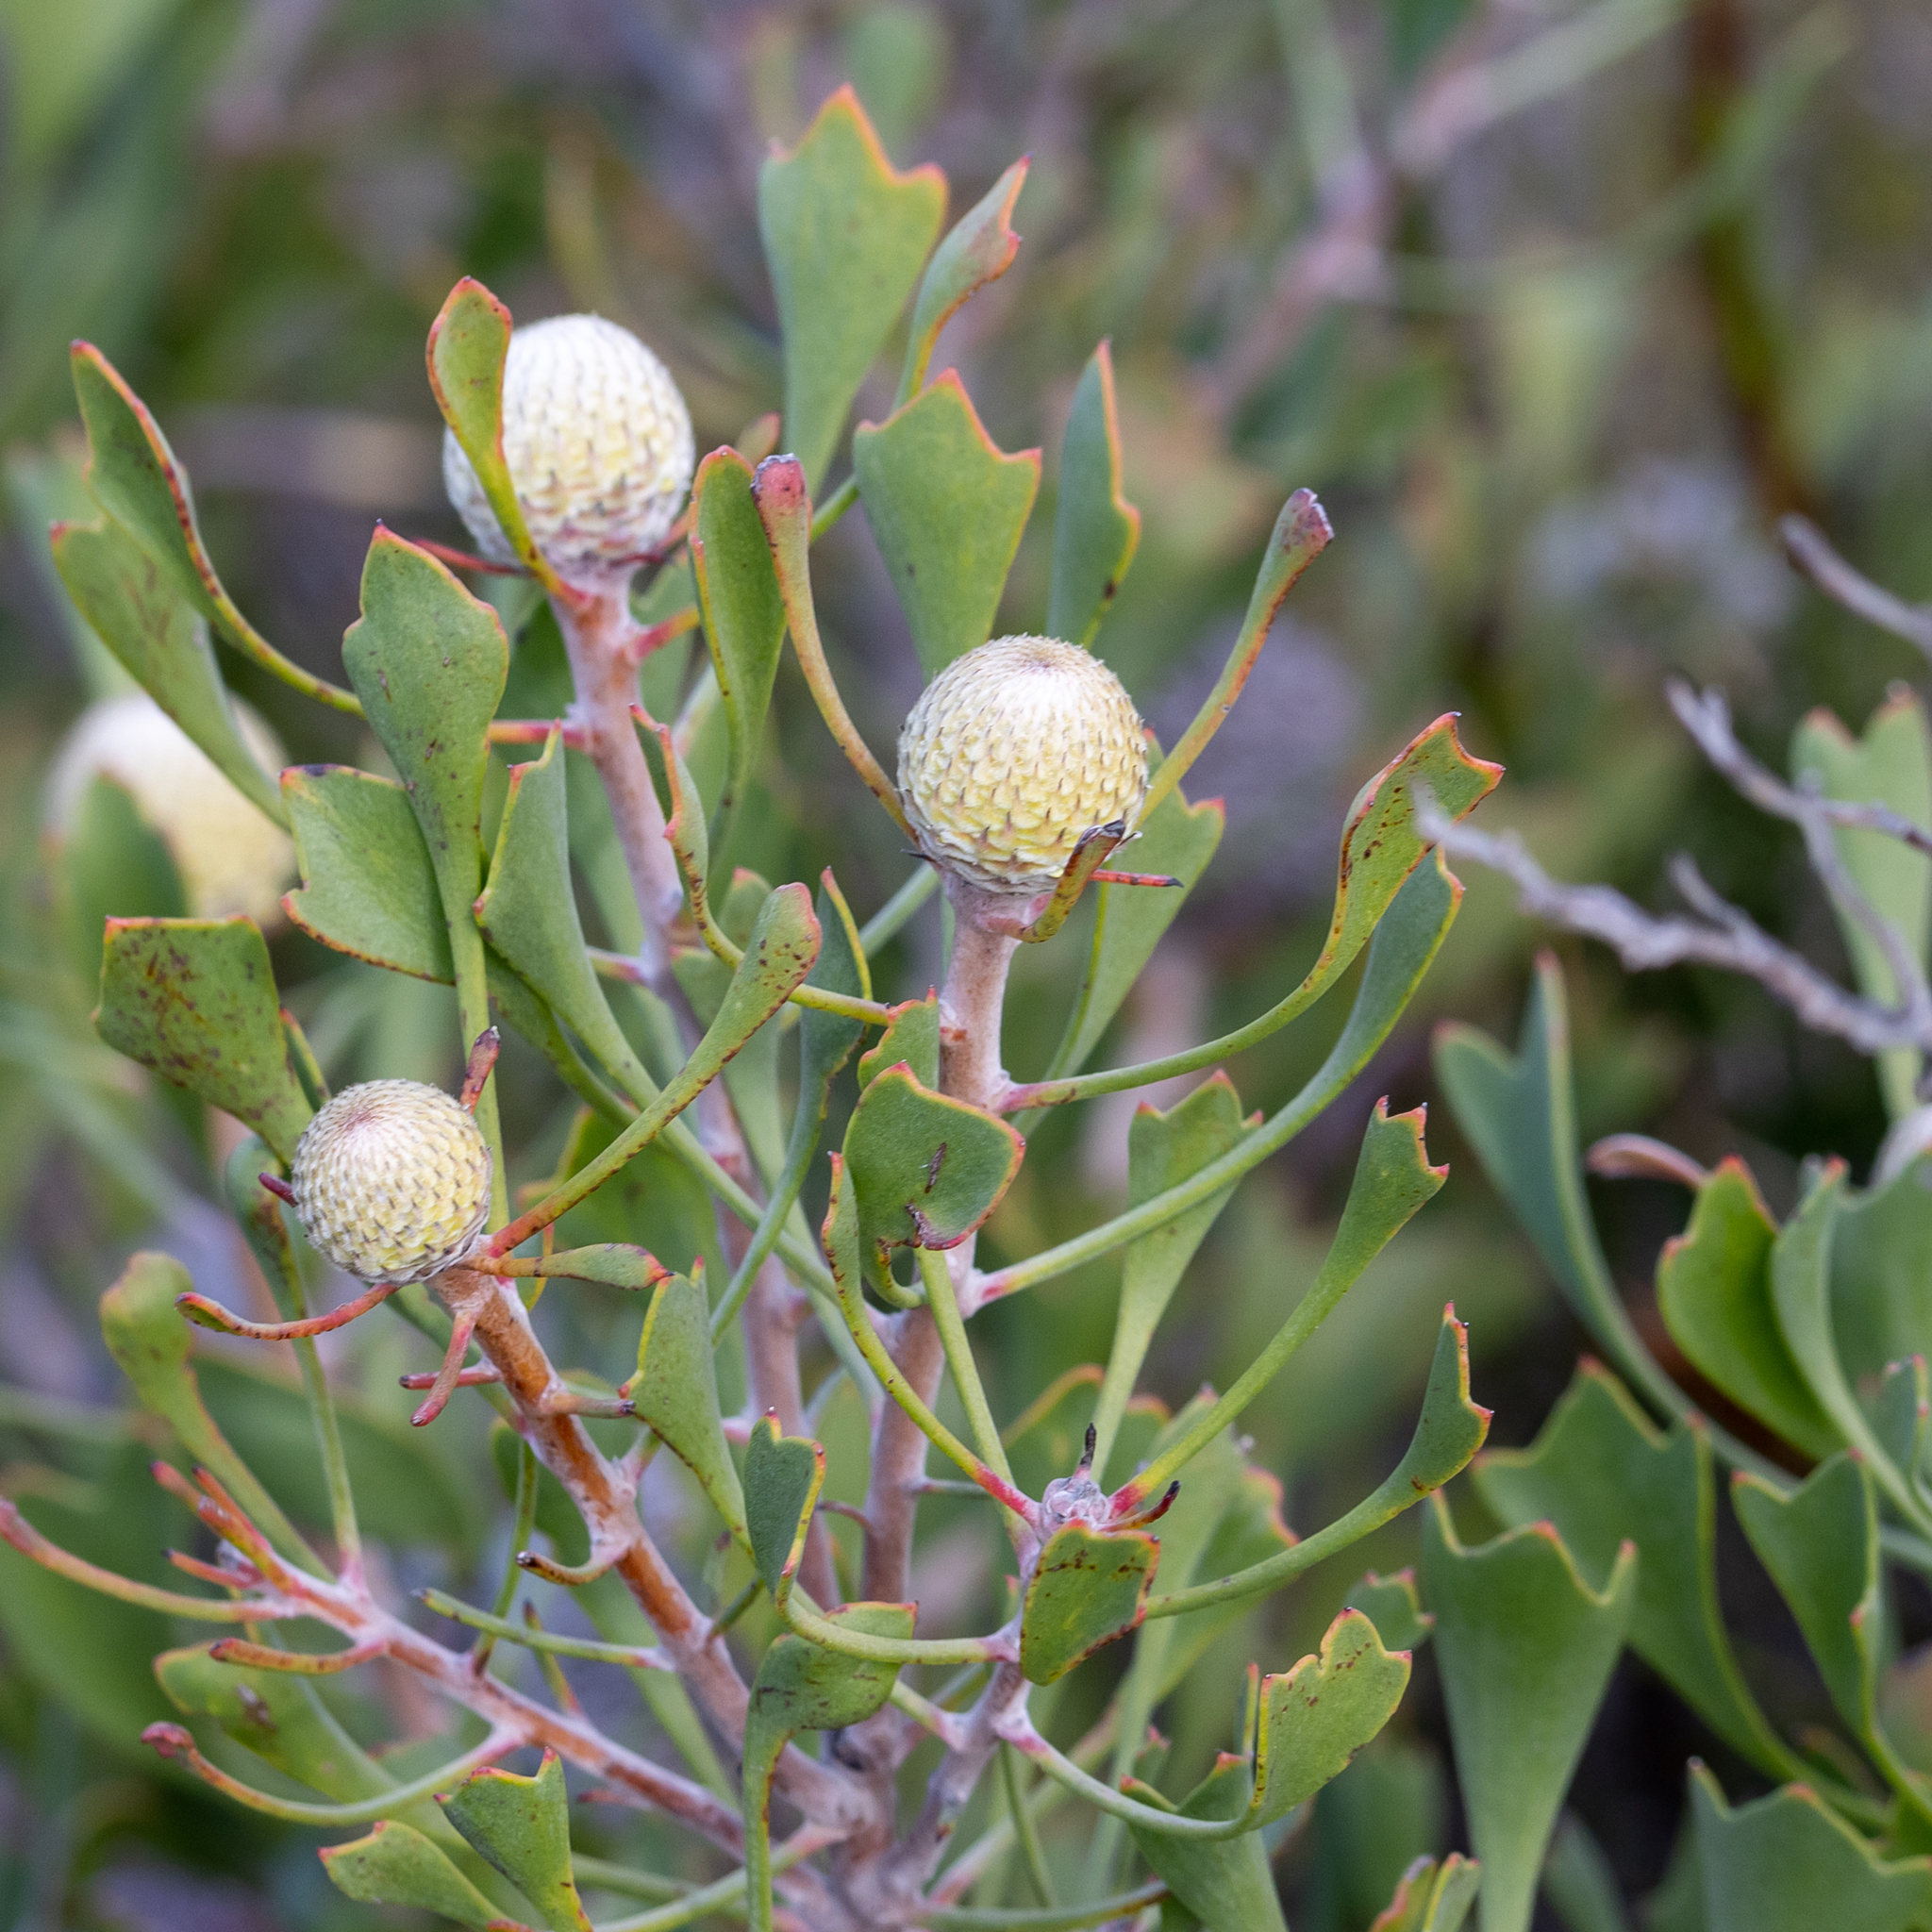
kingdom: Plantae
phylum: Tracheophyta
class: Magnoliopsida
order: Proteales
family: Proteaceae
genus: Isopogon
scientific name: Isopogon trilobus
